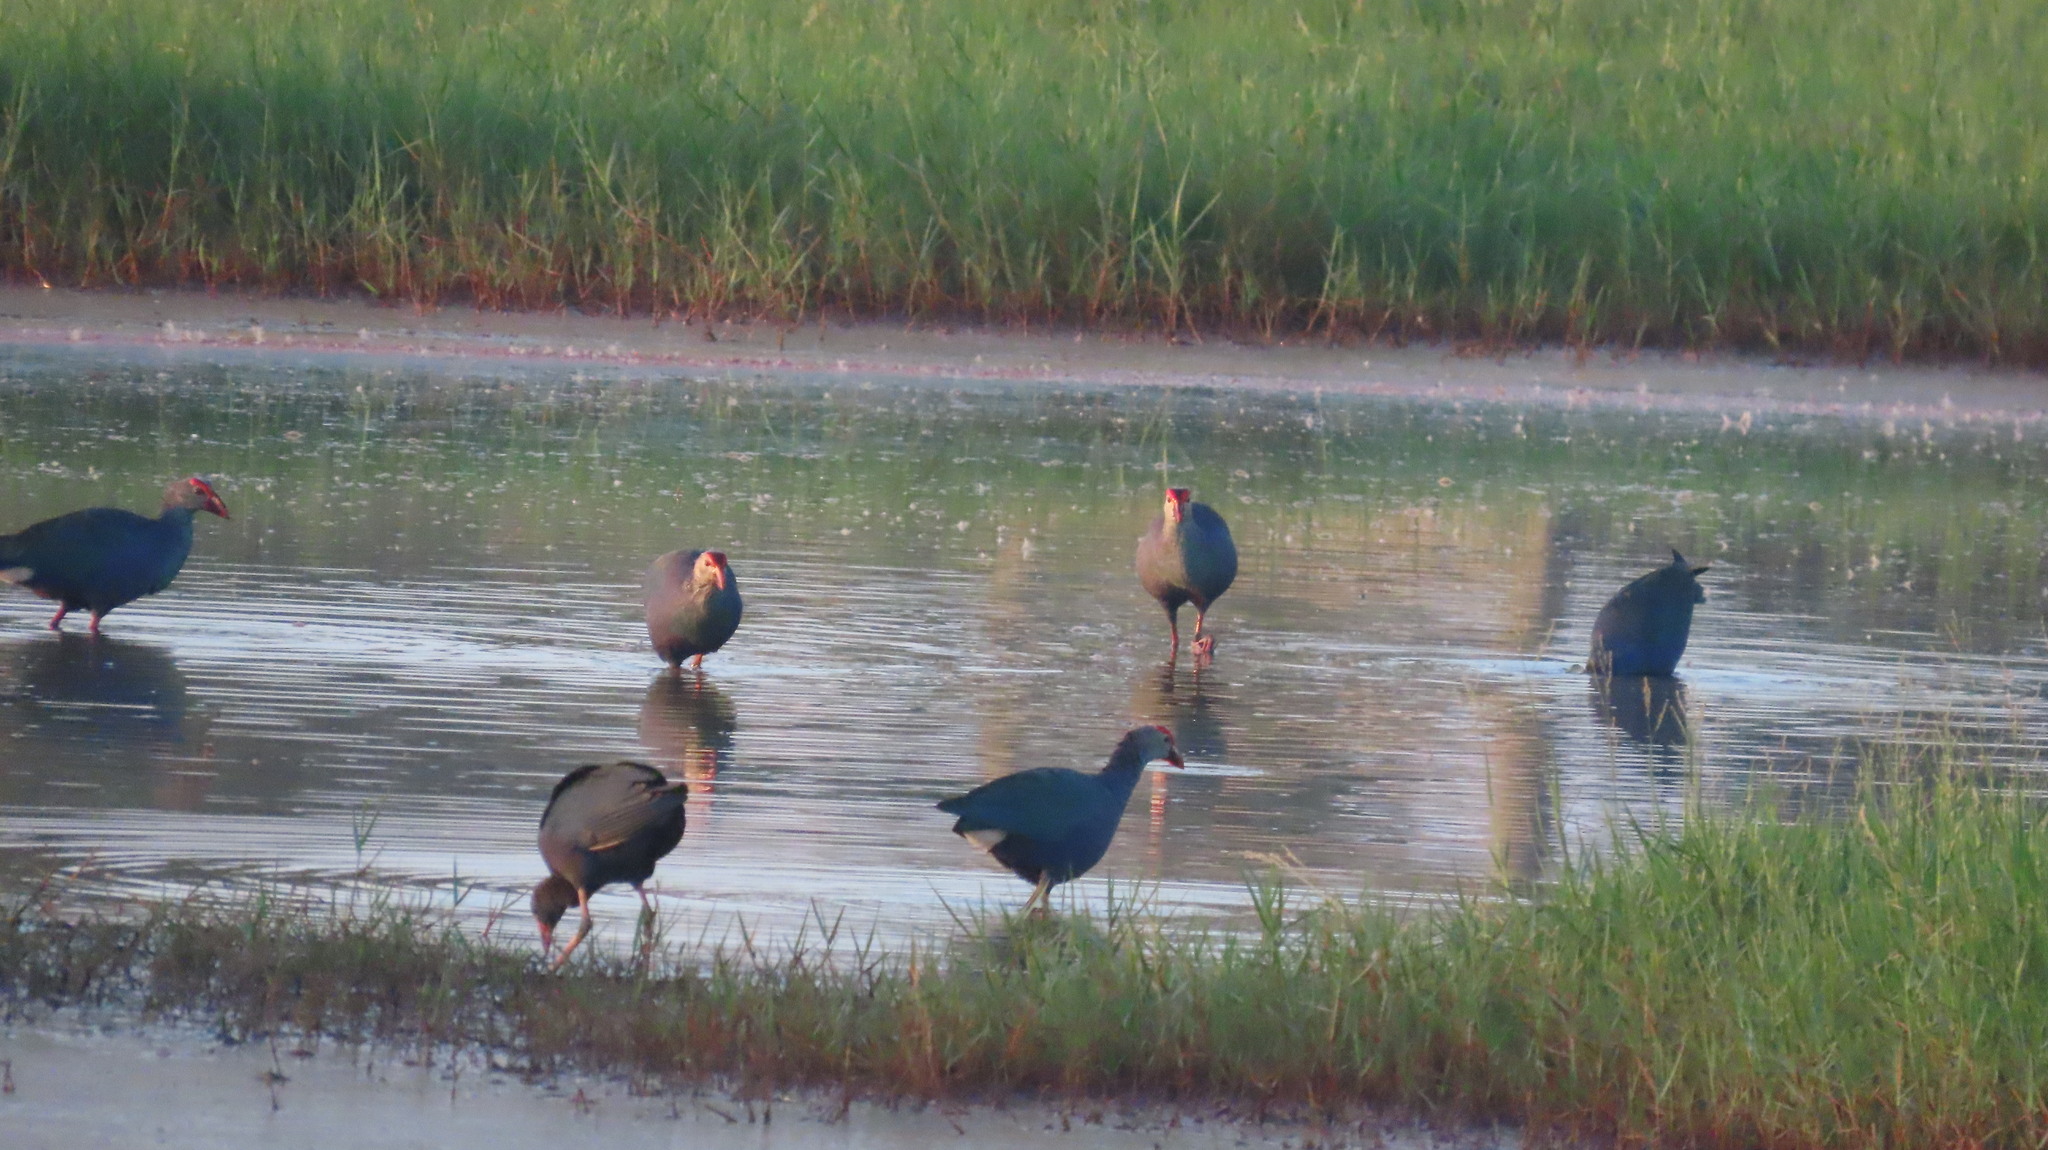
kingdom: Animalia
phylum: Chordata
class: Aves
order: Gruiformes
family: Rallidae
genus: Porphyrio
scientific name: Porphyrio porphyrio
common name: Purple swamphen
